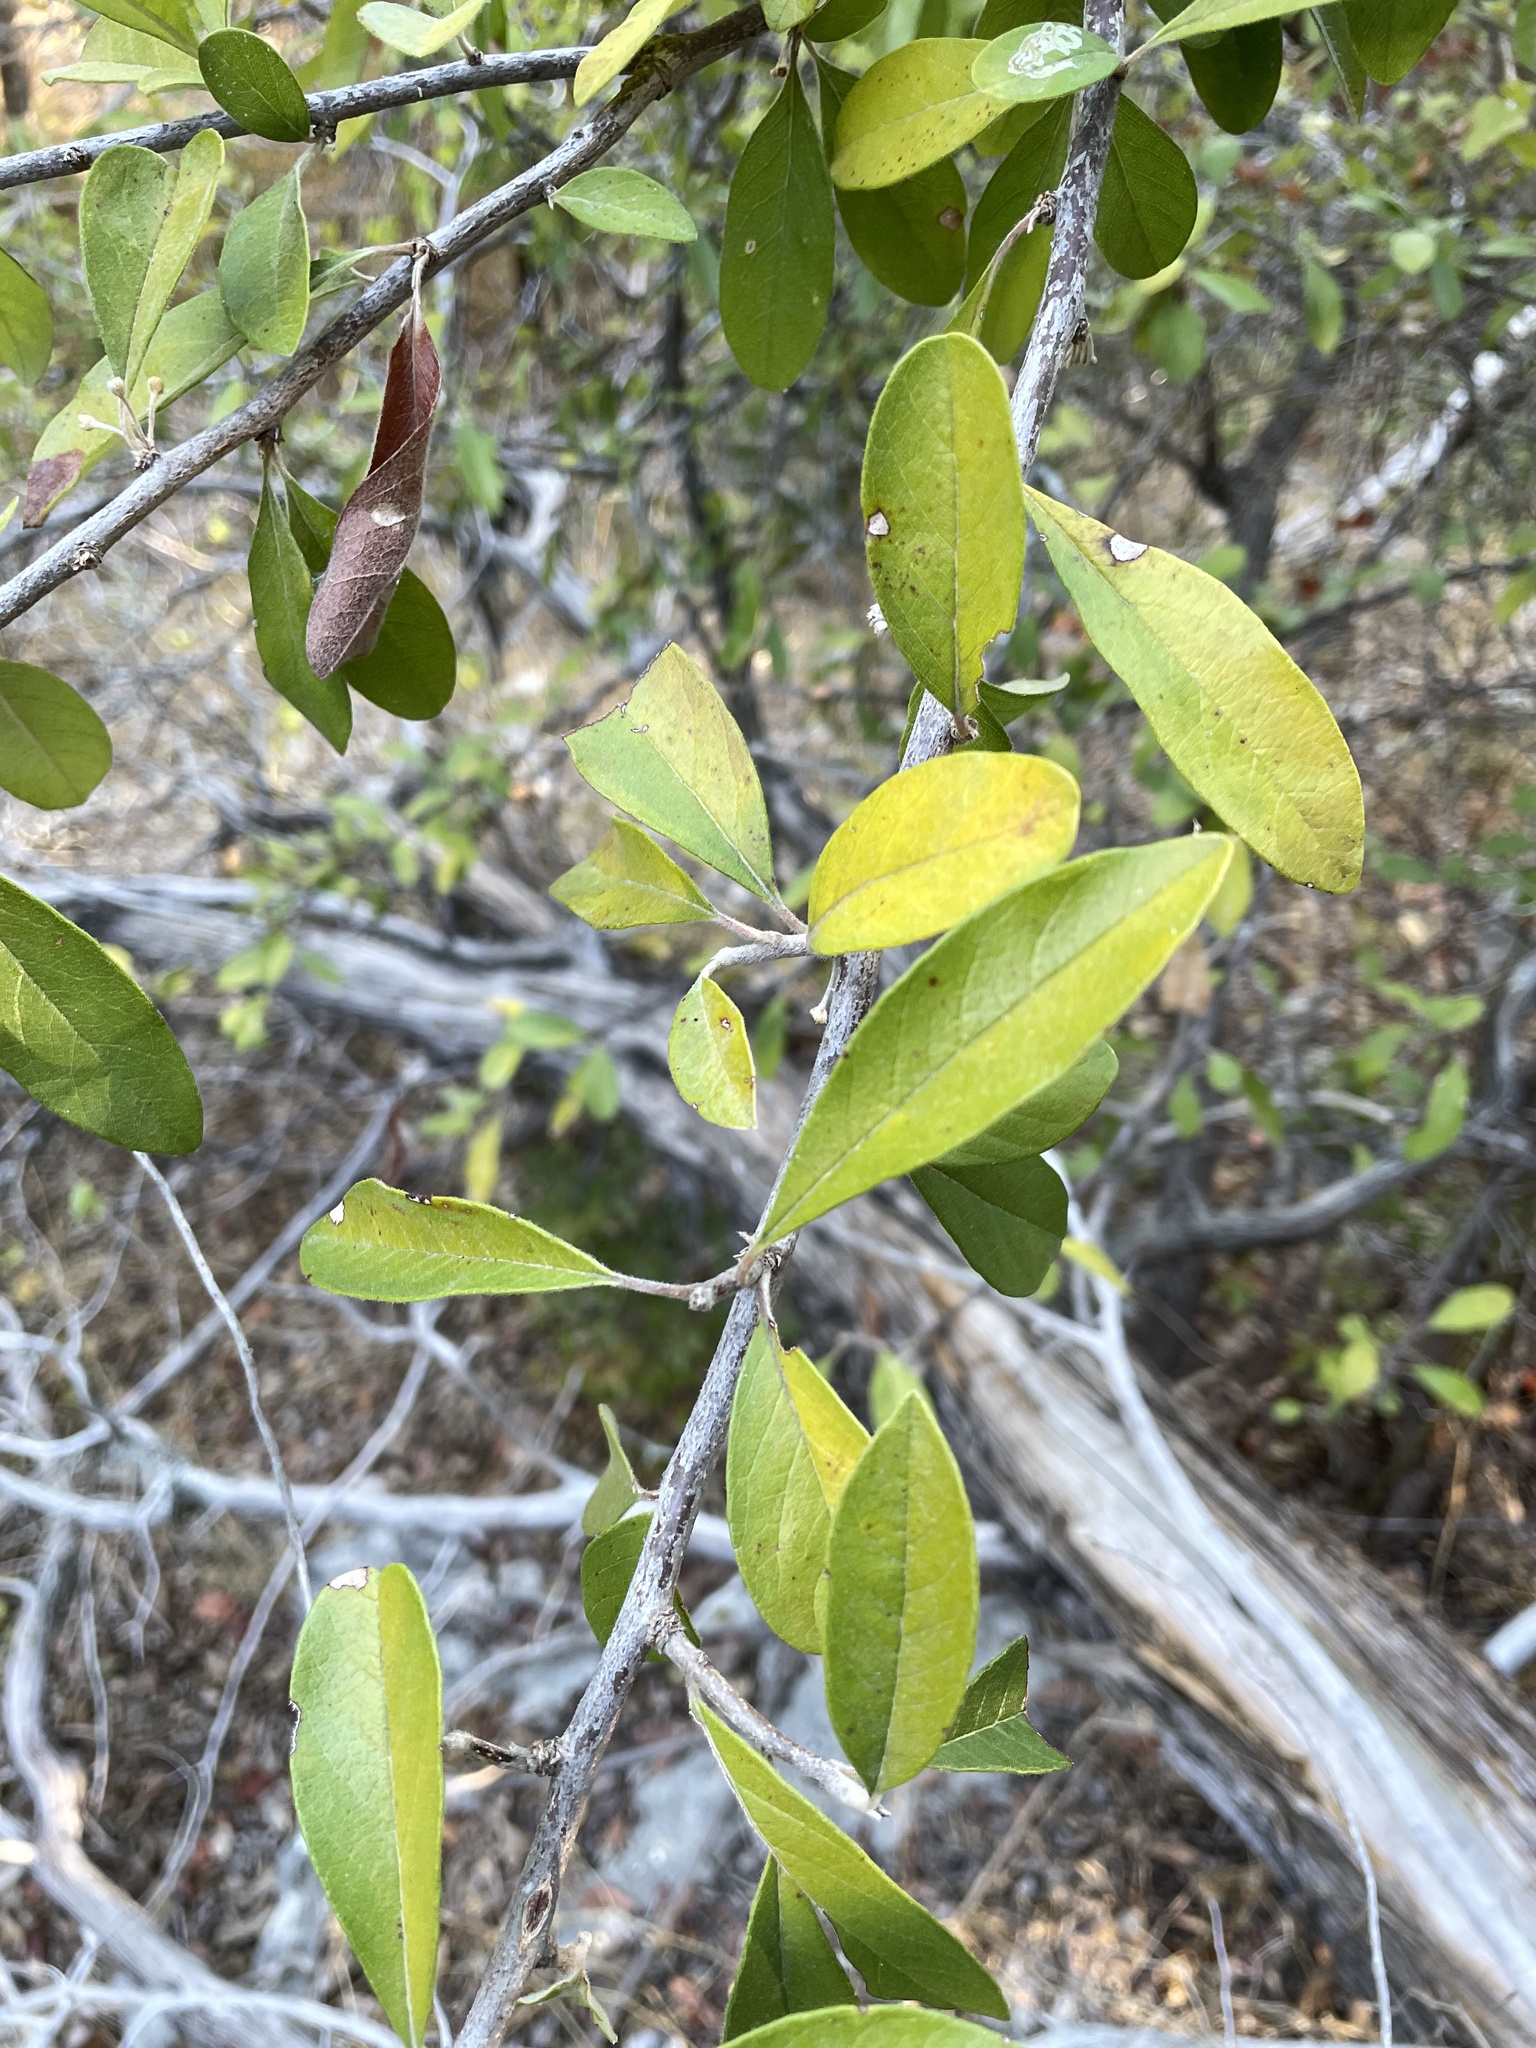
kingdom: Plantae
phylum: Tracheophyta
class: Magnoliopsida
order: Ericales
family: Sapotaceae
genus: Sideroxylon
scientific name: Sideroxylon lanuginosum
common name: Chittamwood
